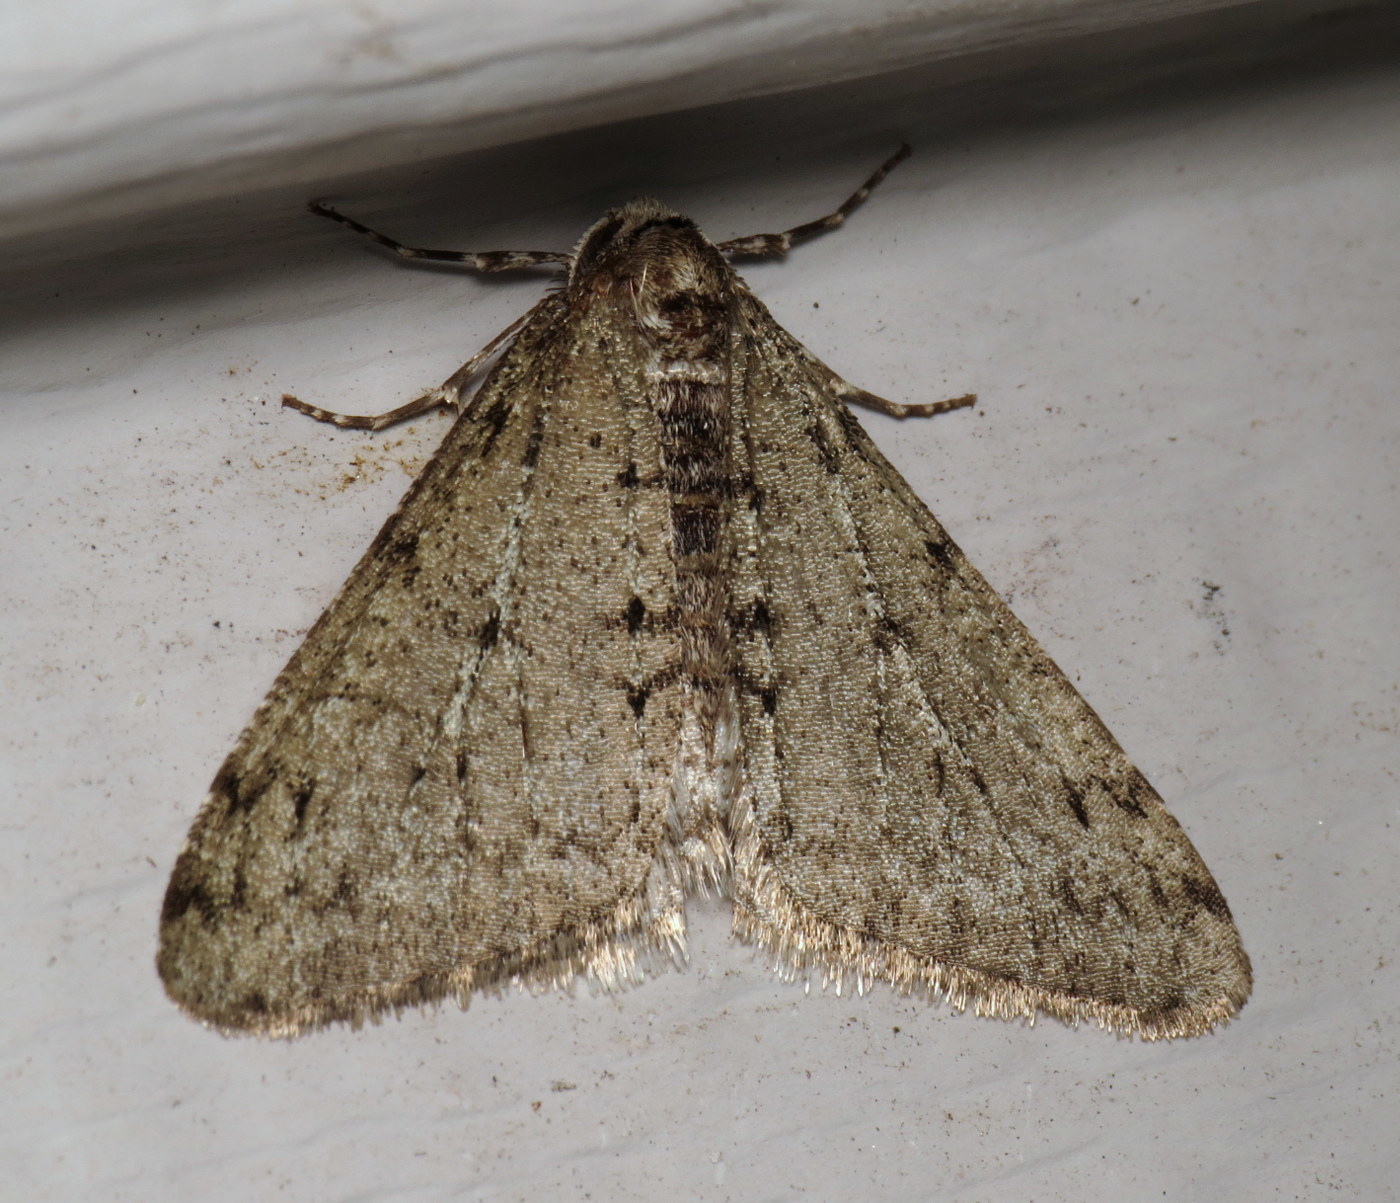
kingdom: Animalia
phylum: Arthropoda
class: Insecta
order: Lepidoptera
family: Geometridae
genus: Phigalia
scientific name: Phigalia strigataria
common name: Small phigalia
